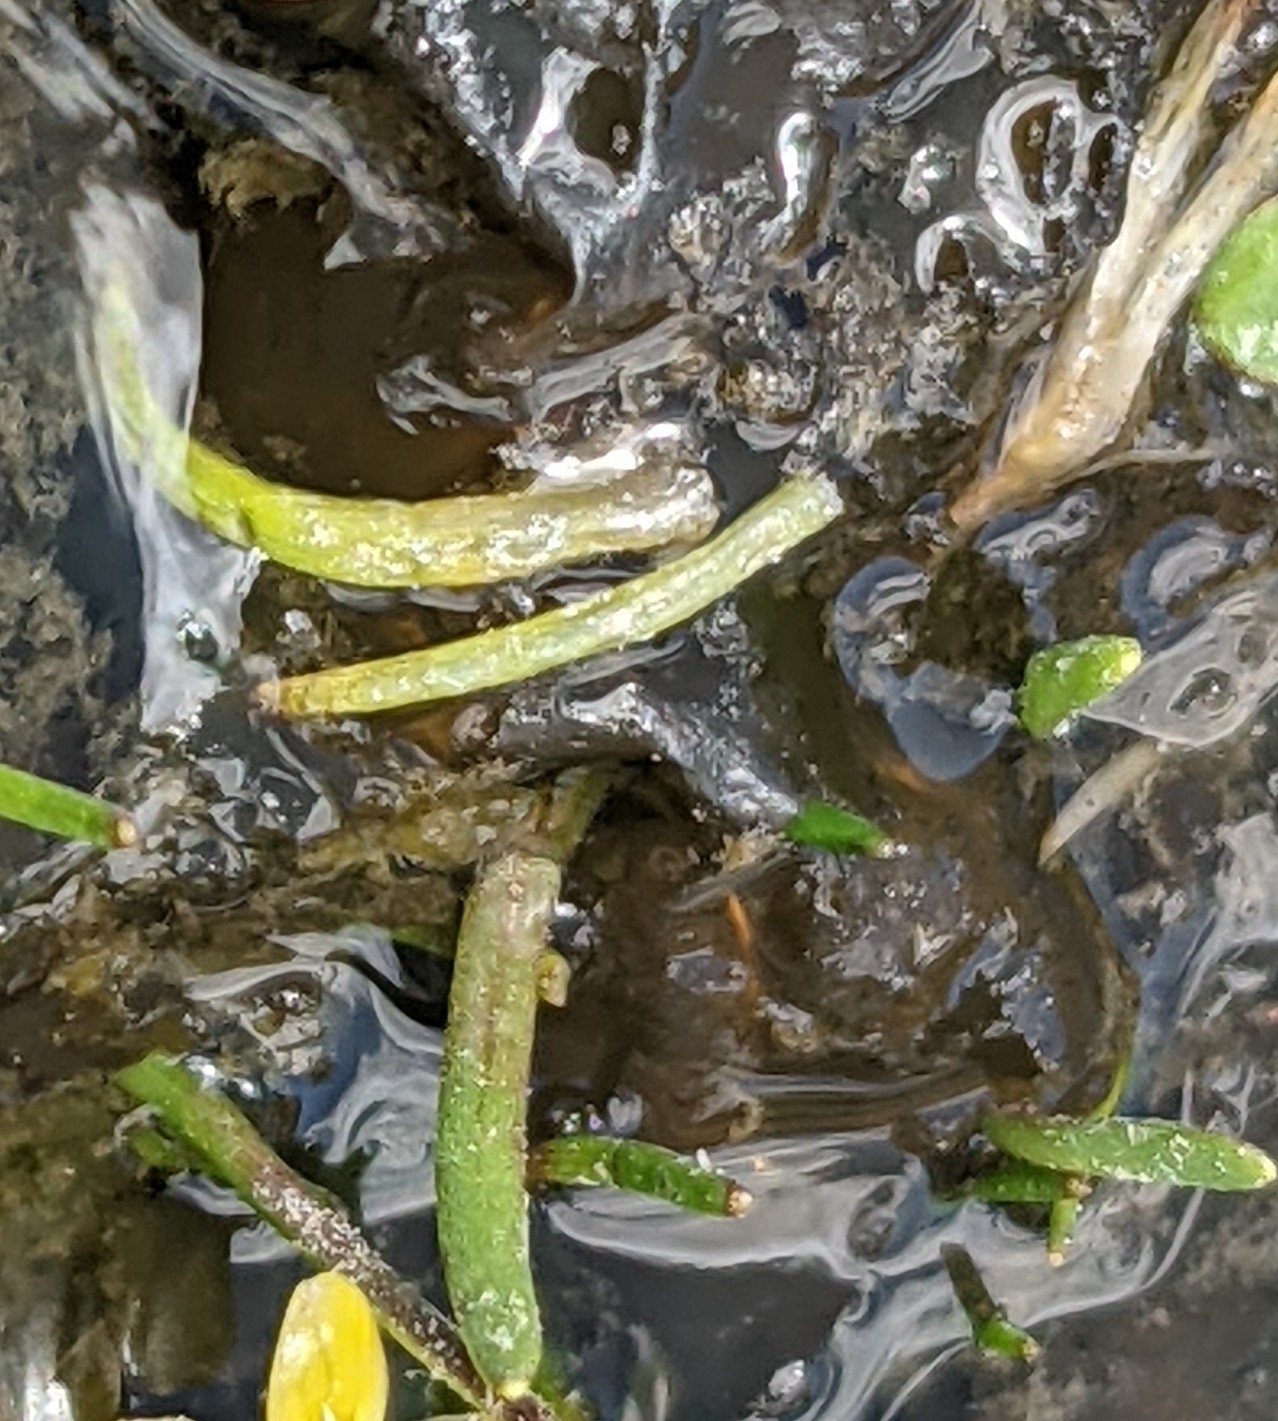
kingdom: Plantae
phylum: Tracheophyta
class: Magnoliopsida
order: Lamiales
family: Scrophulariaceae
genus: Limosella
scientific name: Limosella australis
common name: Welsh mudwort
